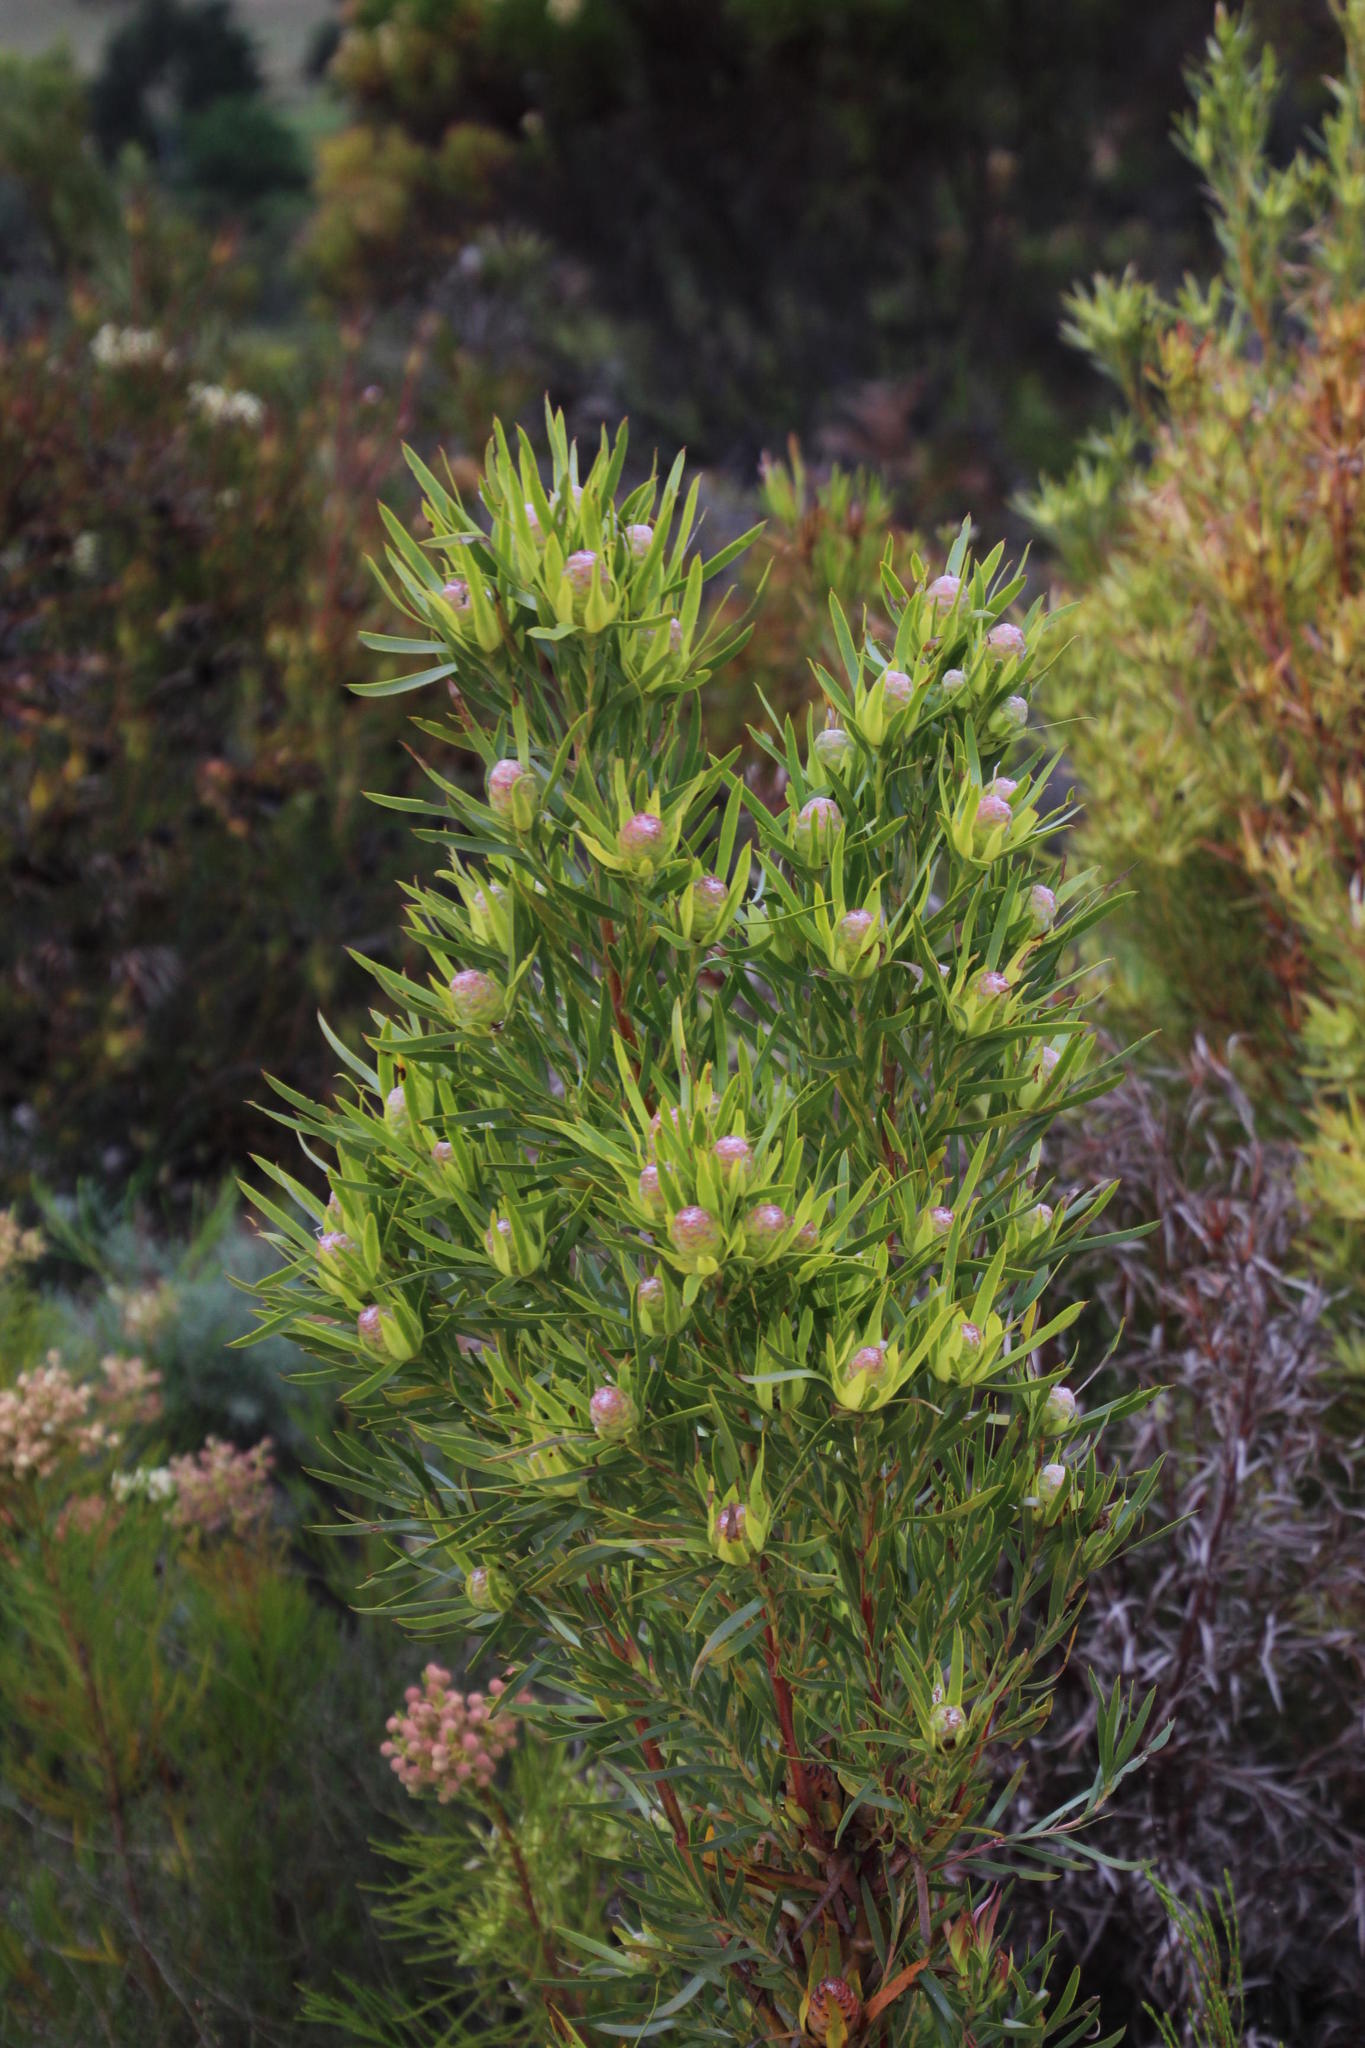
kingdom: Plantae
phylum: Tracheophyta
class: Magnoliopsida
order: Proteales
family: Proteaceae
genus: Leucadendron
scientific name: Leucadendron xanthoconus
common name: Sickle-leaf conebush
